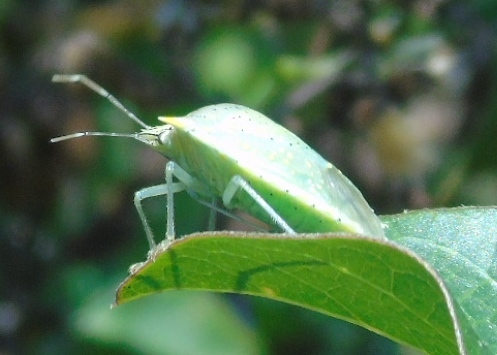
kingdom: Animalia
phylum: Arthropoda
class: Insecta
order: Hemiptera
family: Pentatomidae
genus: Arvelius
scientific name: Arvelius
